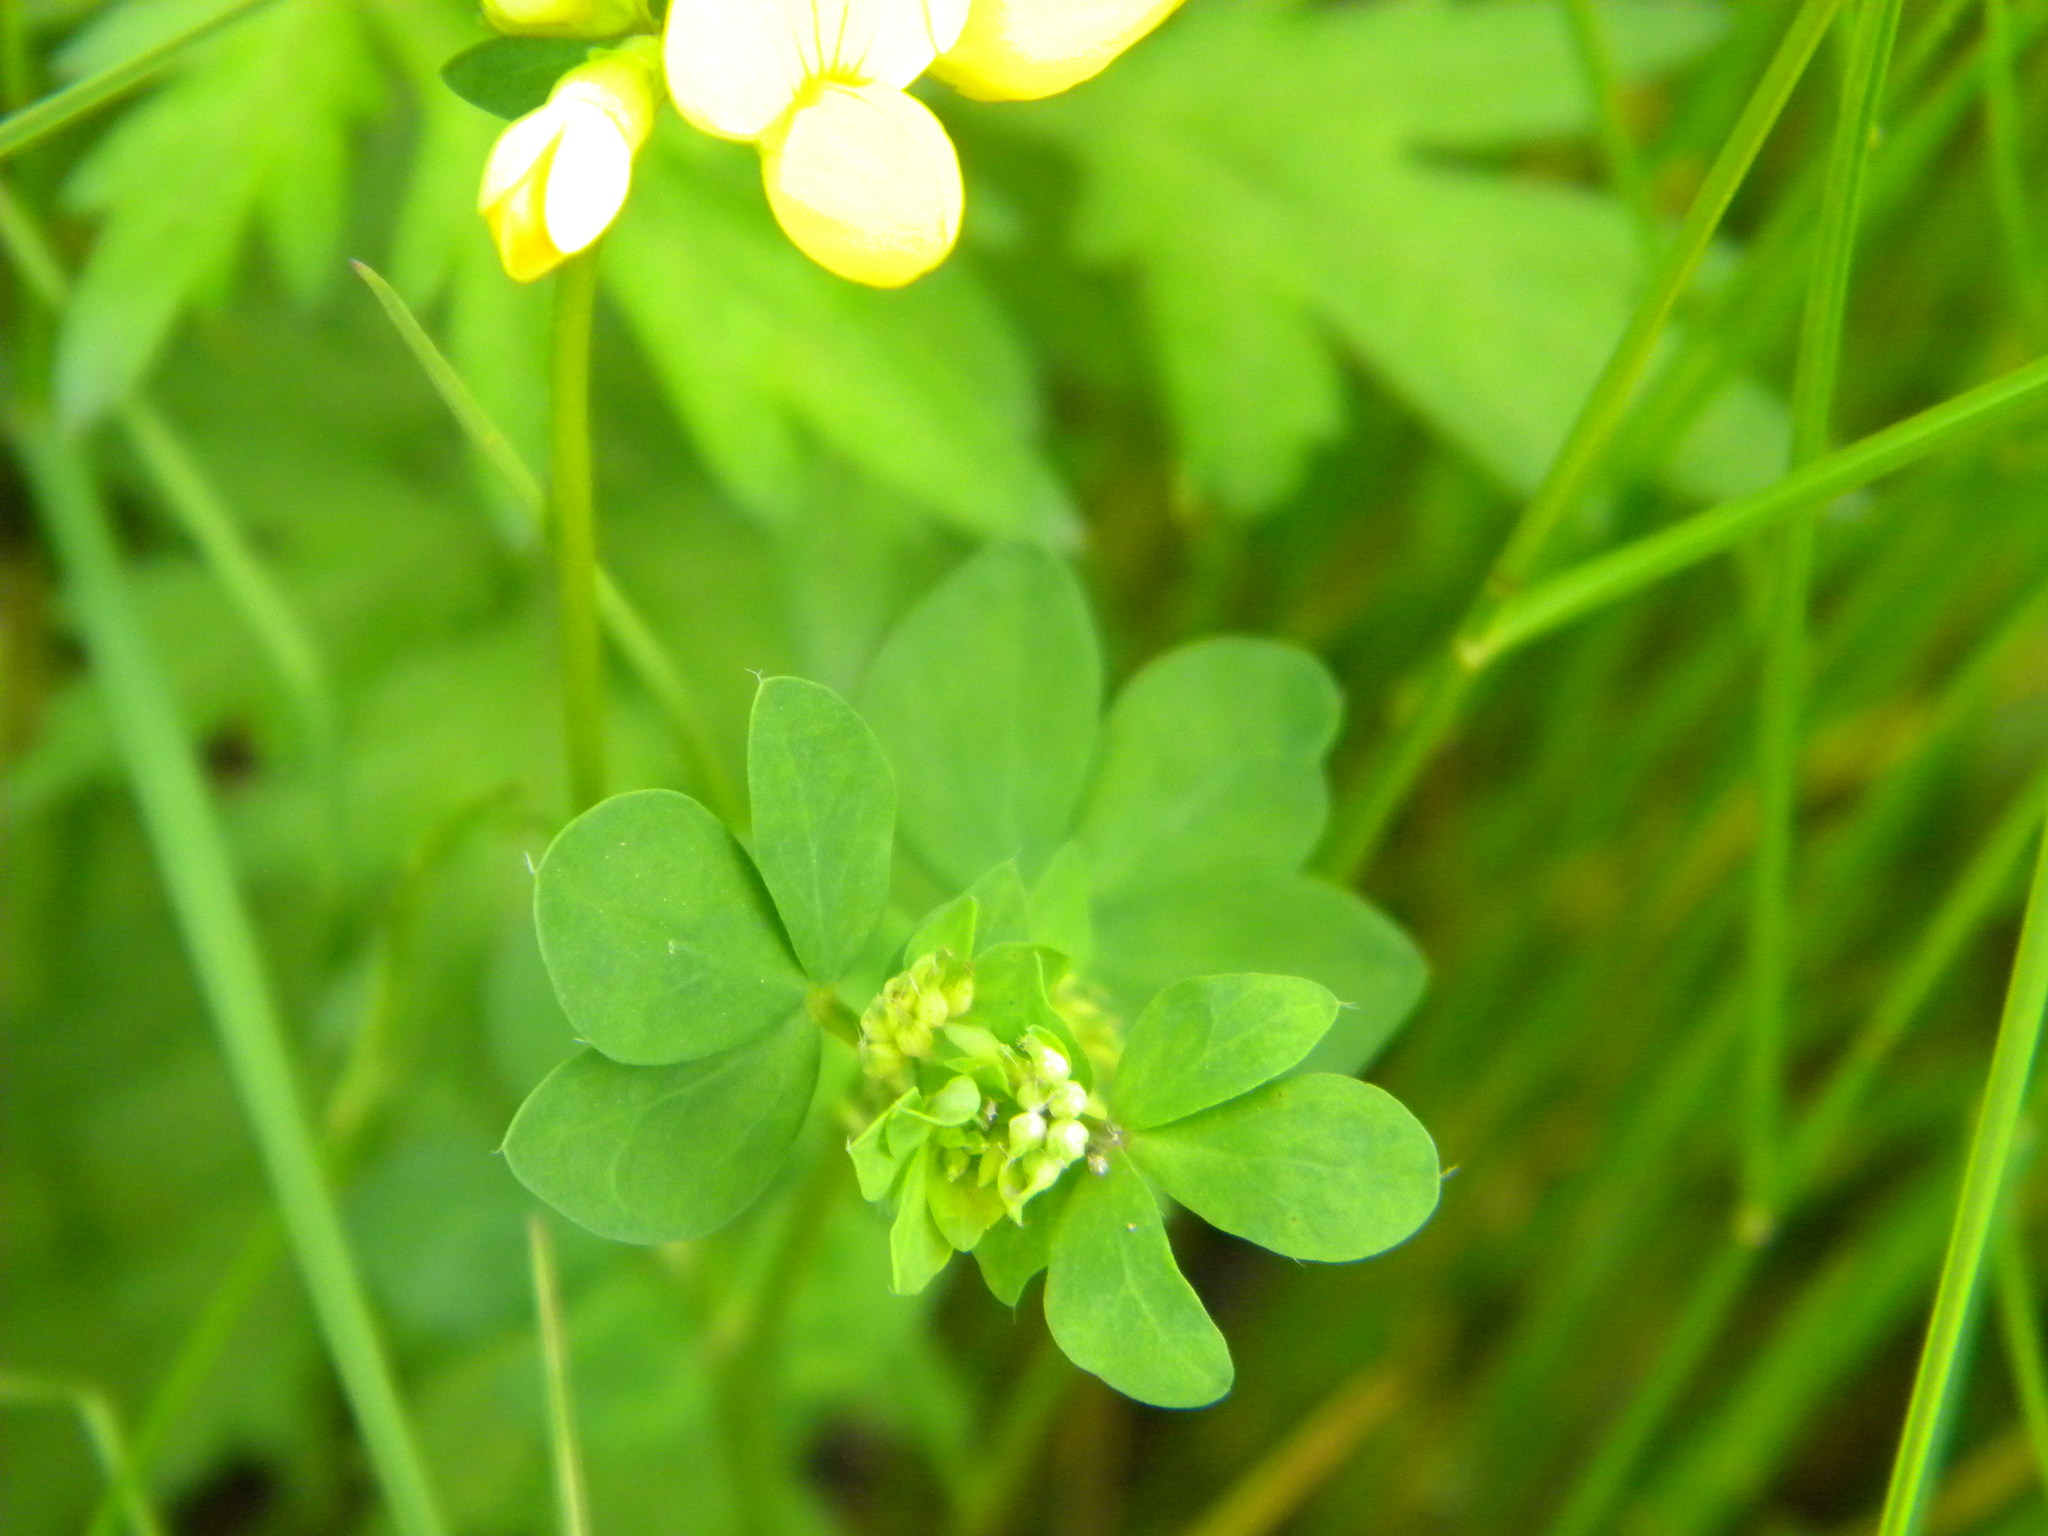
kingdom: Plantae
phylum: Tracheophyta
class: Magnoliopsida
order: Fabales
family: Fabaceae
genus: Lotus
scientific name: Lotus corniculatus
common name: Common bird's-foot-trefoil
